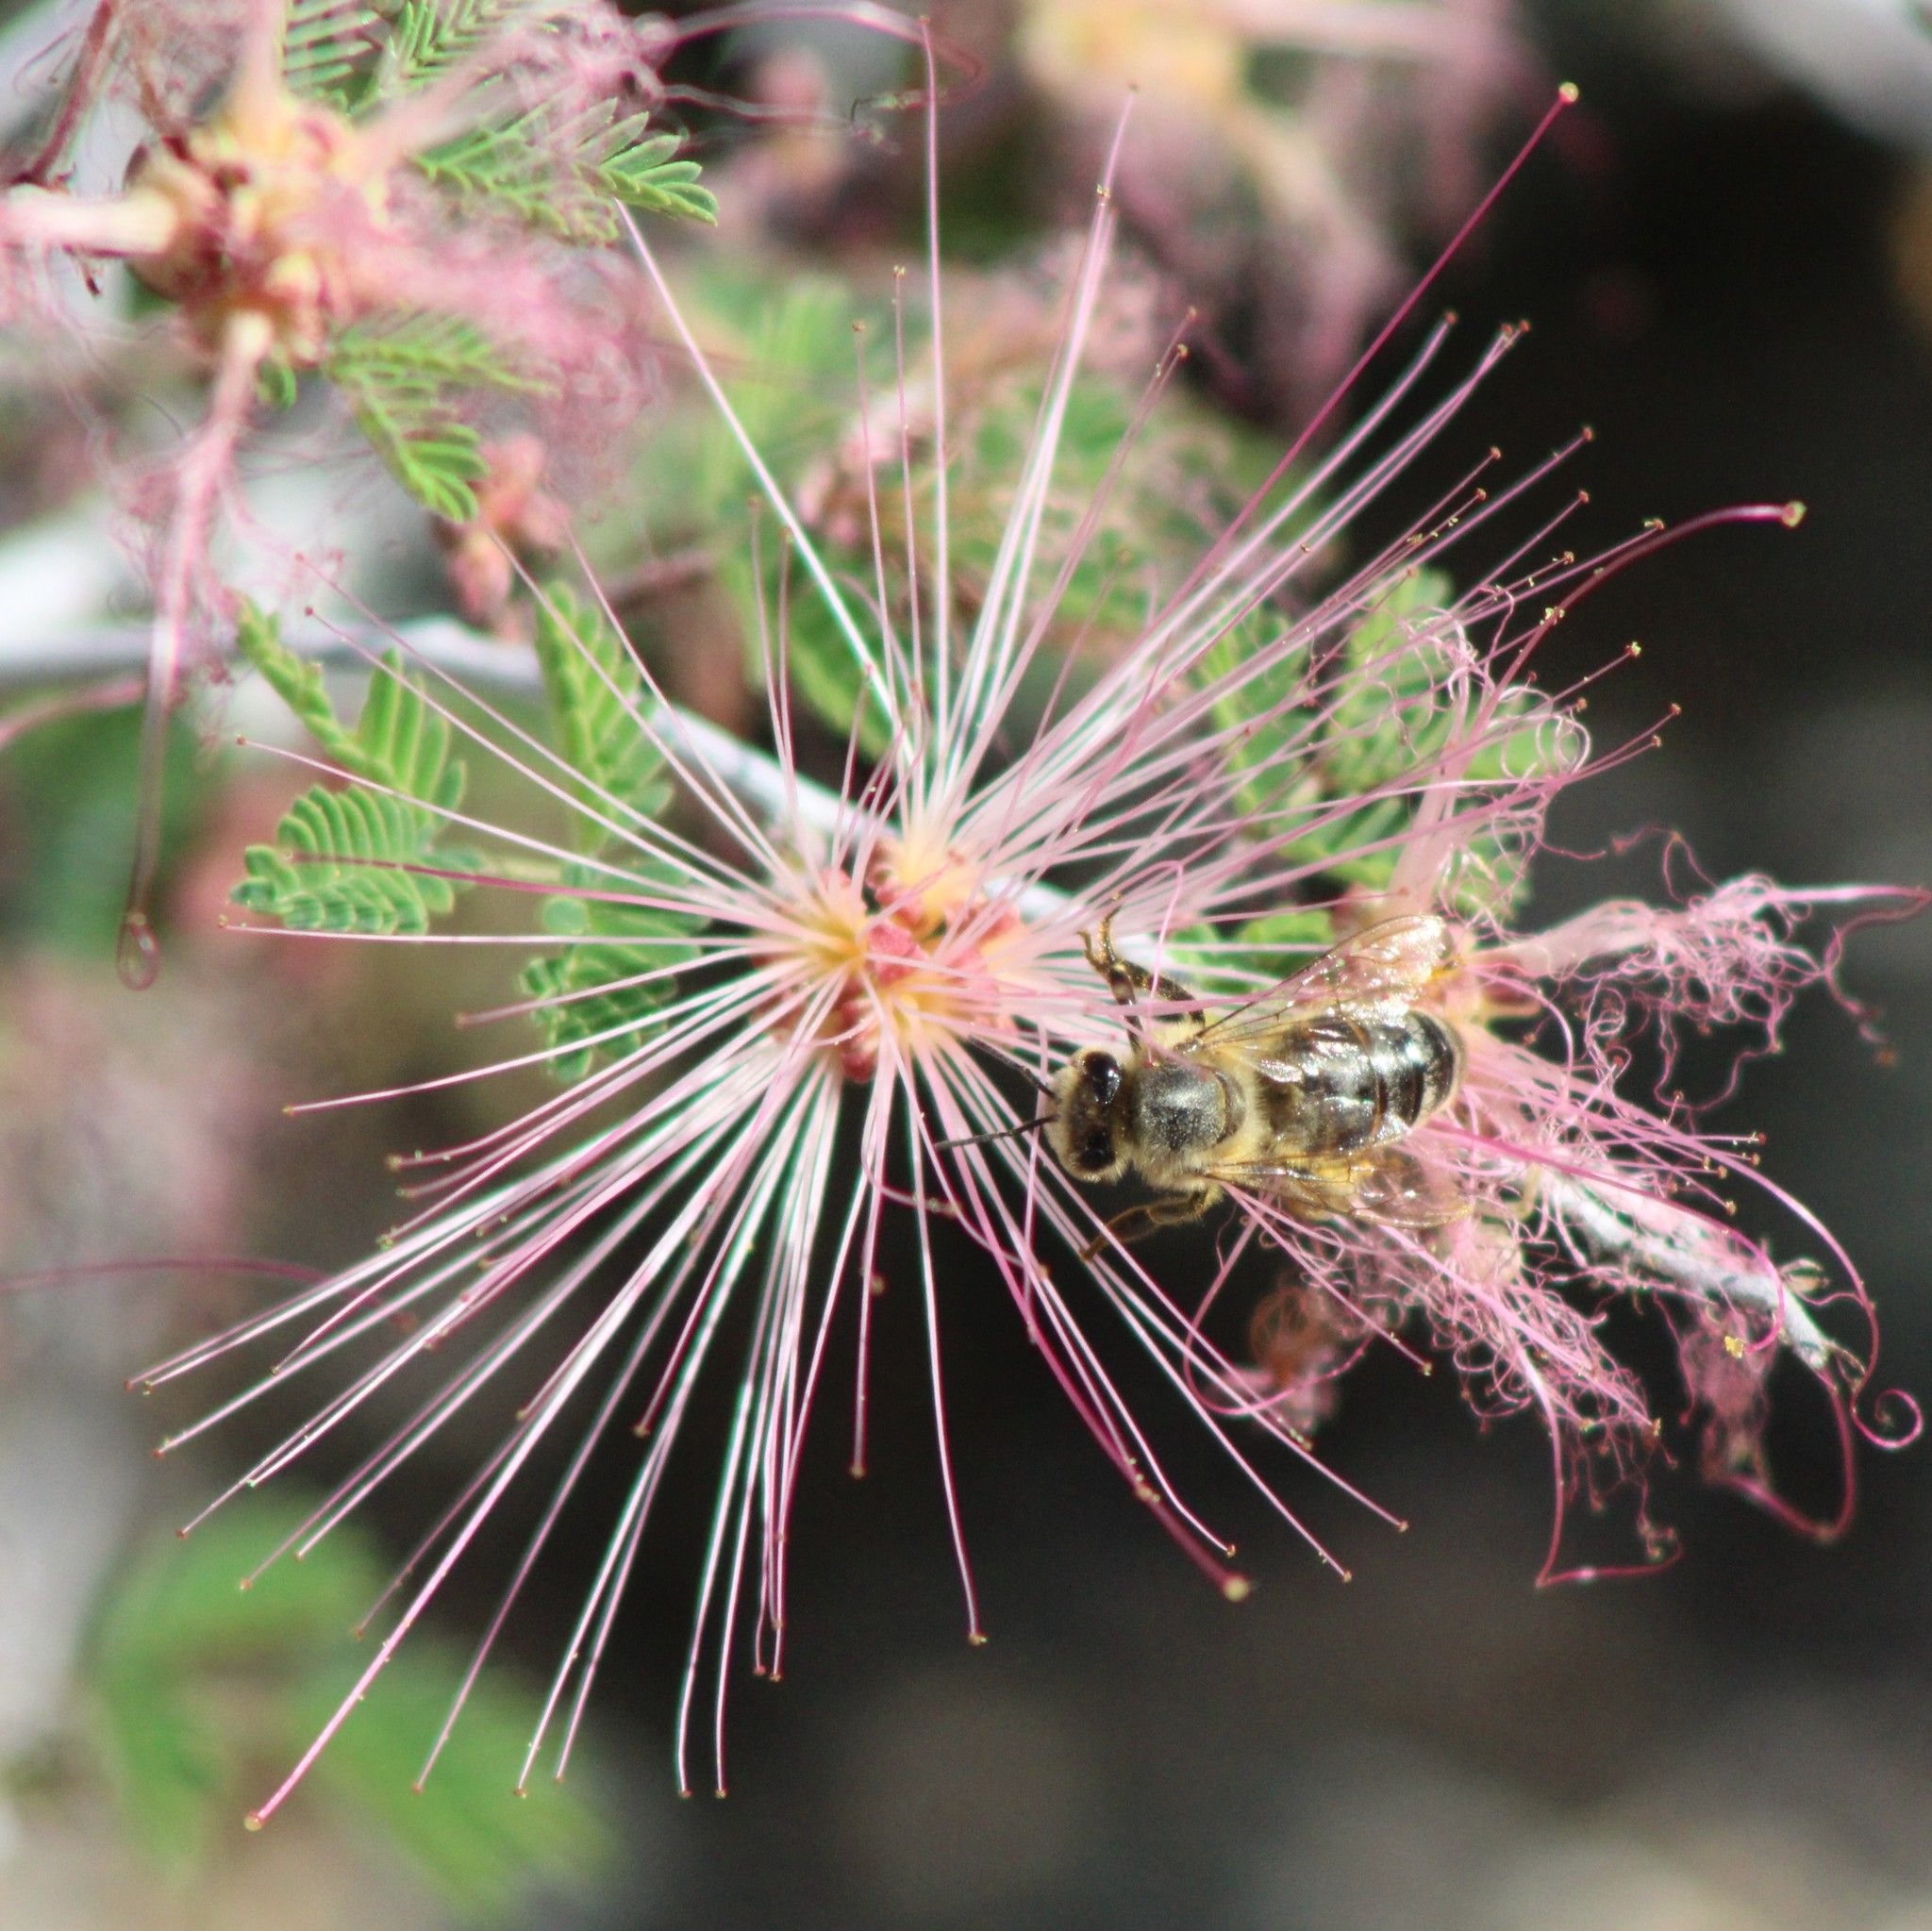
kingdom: Animalia
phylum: Arthropoda
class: Insecta
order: Hymenoptera
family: Apidae
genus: Apis
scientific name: Apis mellifera
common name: Honey bee
